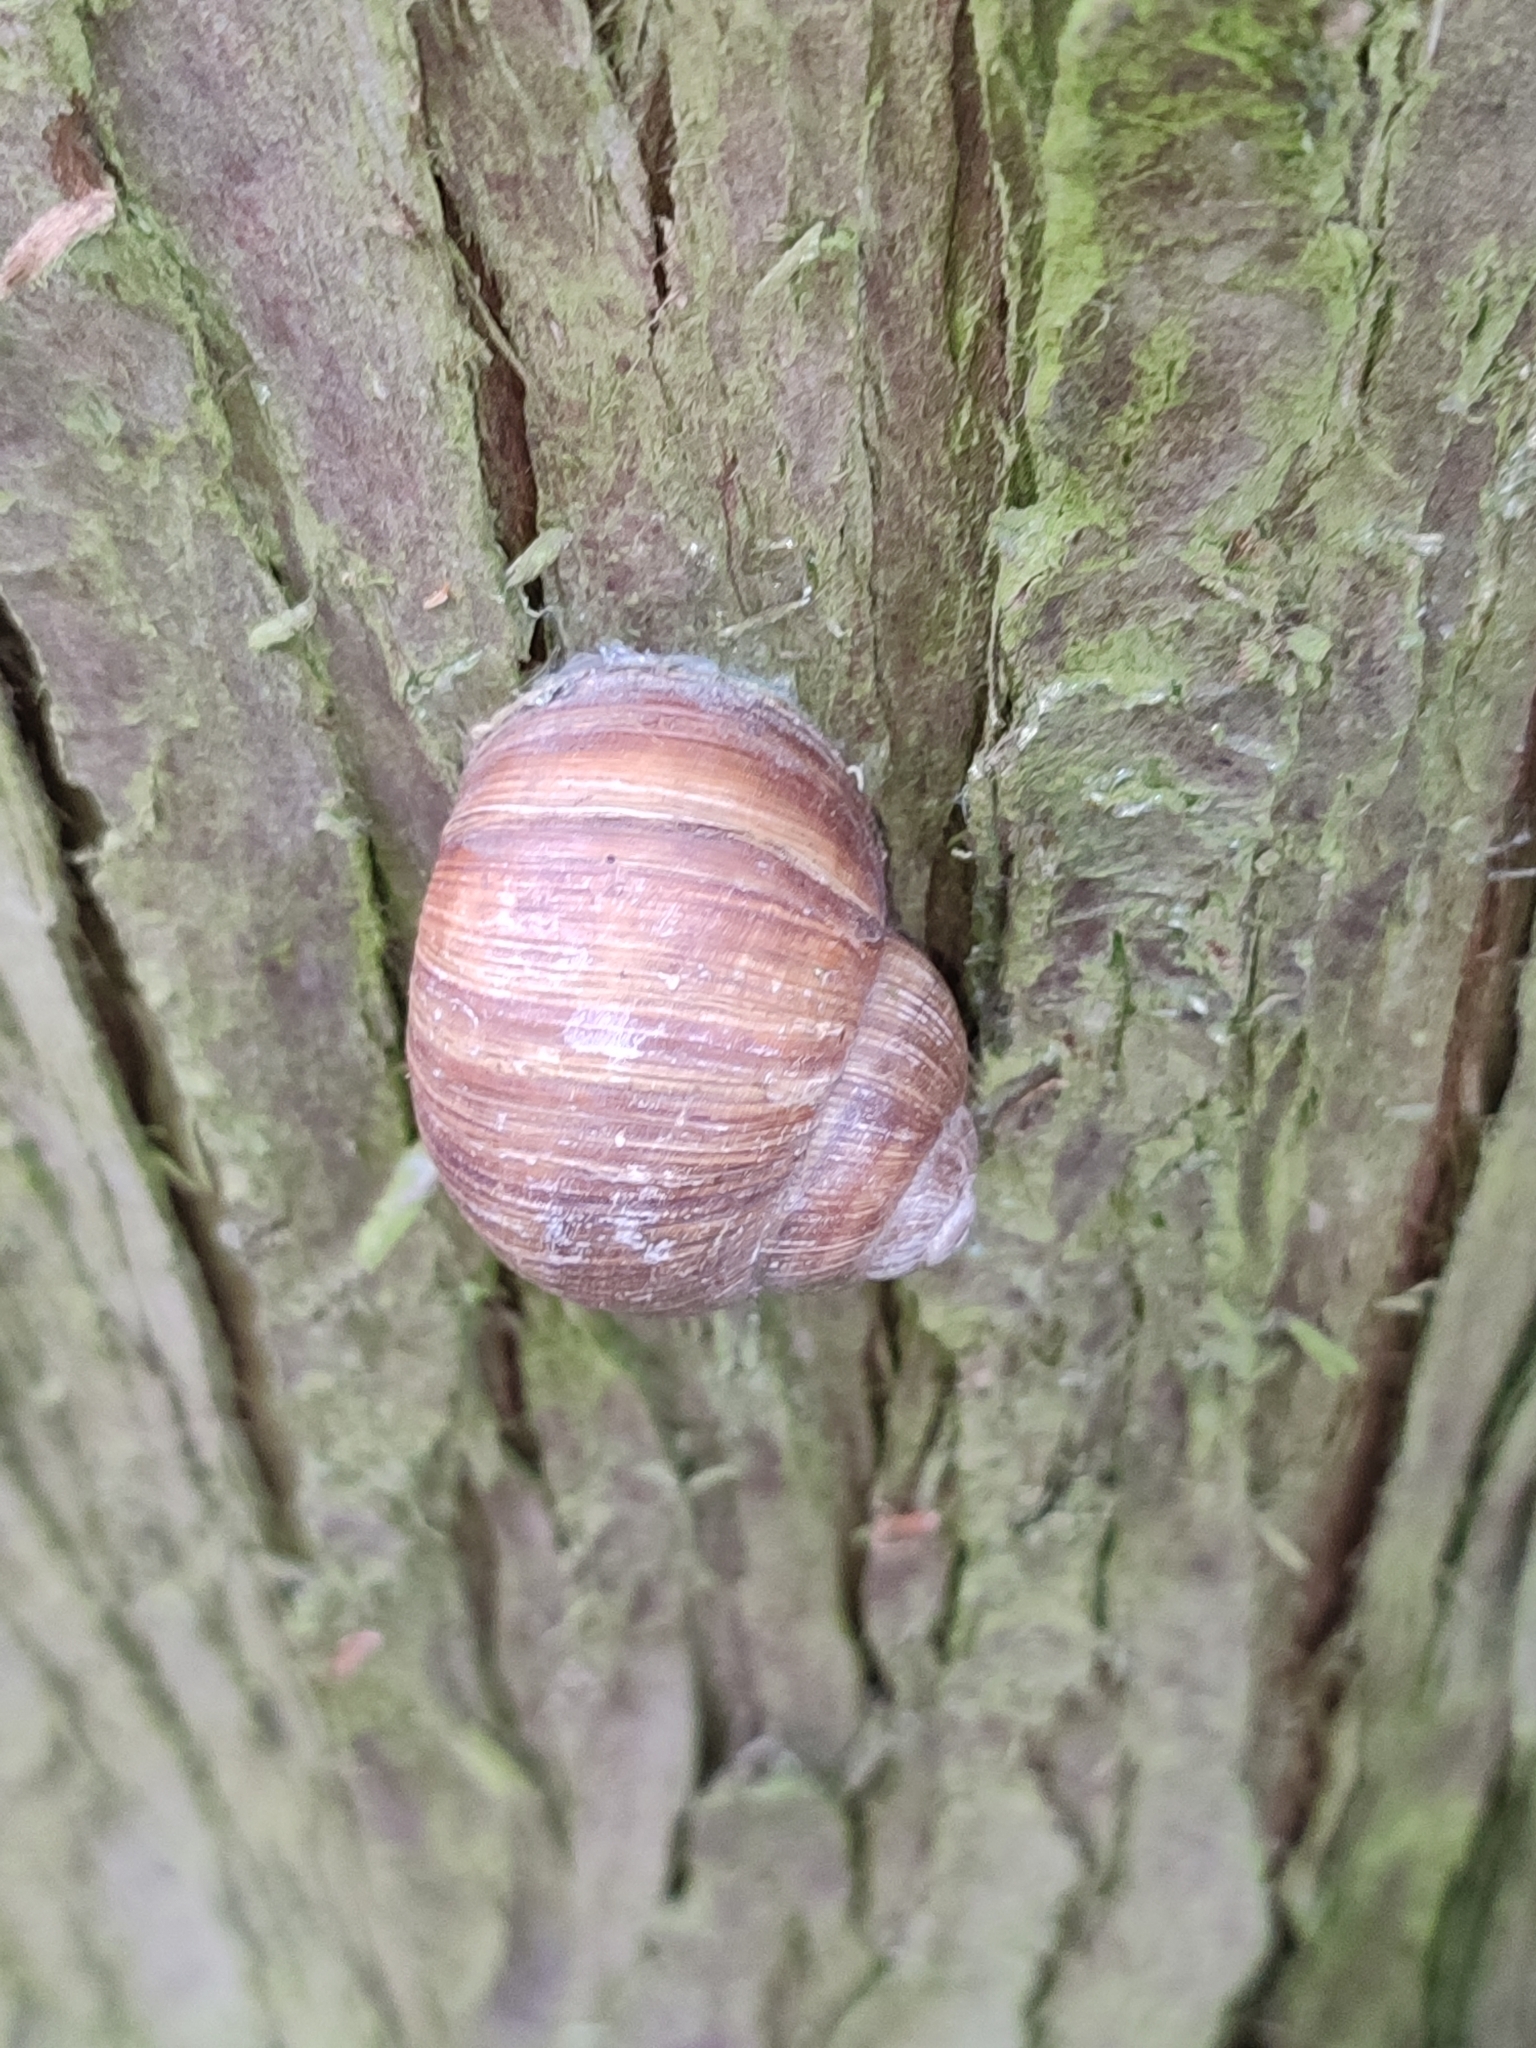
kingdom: Animalia
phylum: Mollusca
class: Gastropoda
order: Stylommatophora
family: Helicidae
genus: Helix
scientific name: Helix pomatia
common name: Roman snail
